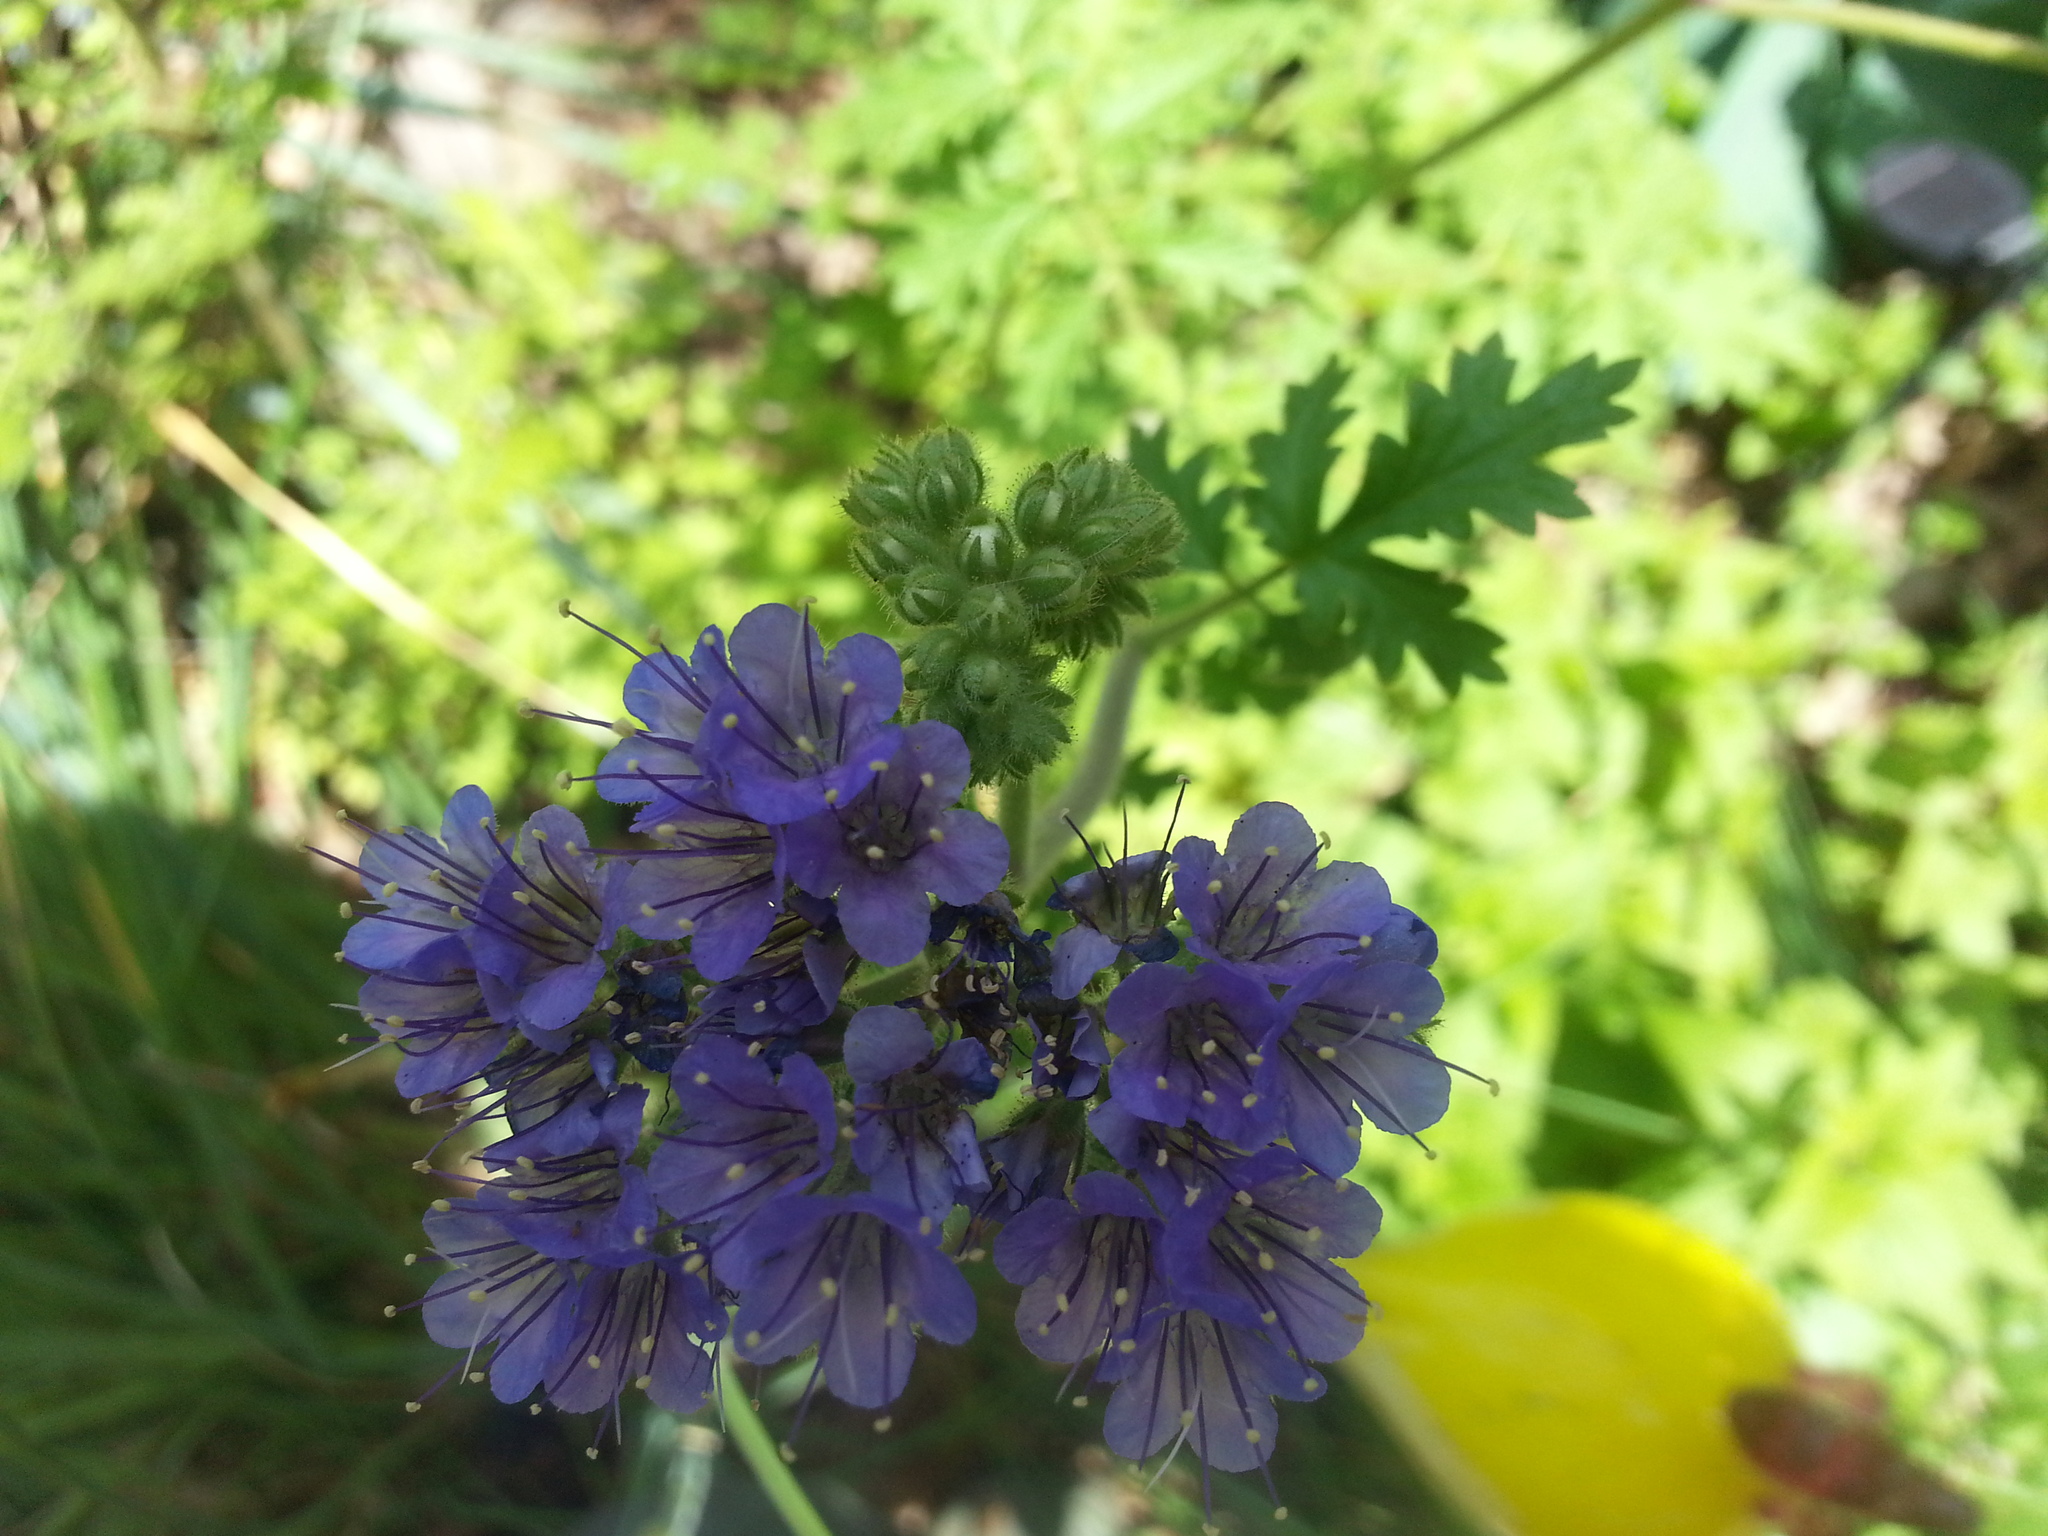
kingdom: Plantae
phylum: Tracheophyta
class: Magnoliopsida
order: Boraginales
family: Hydrophyllaceae
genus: Phacelia
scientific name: Phacelia congesta
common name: Blue curls
